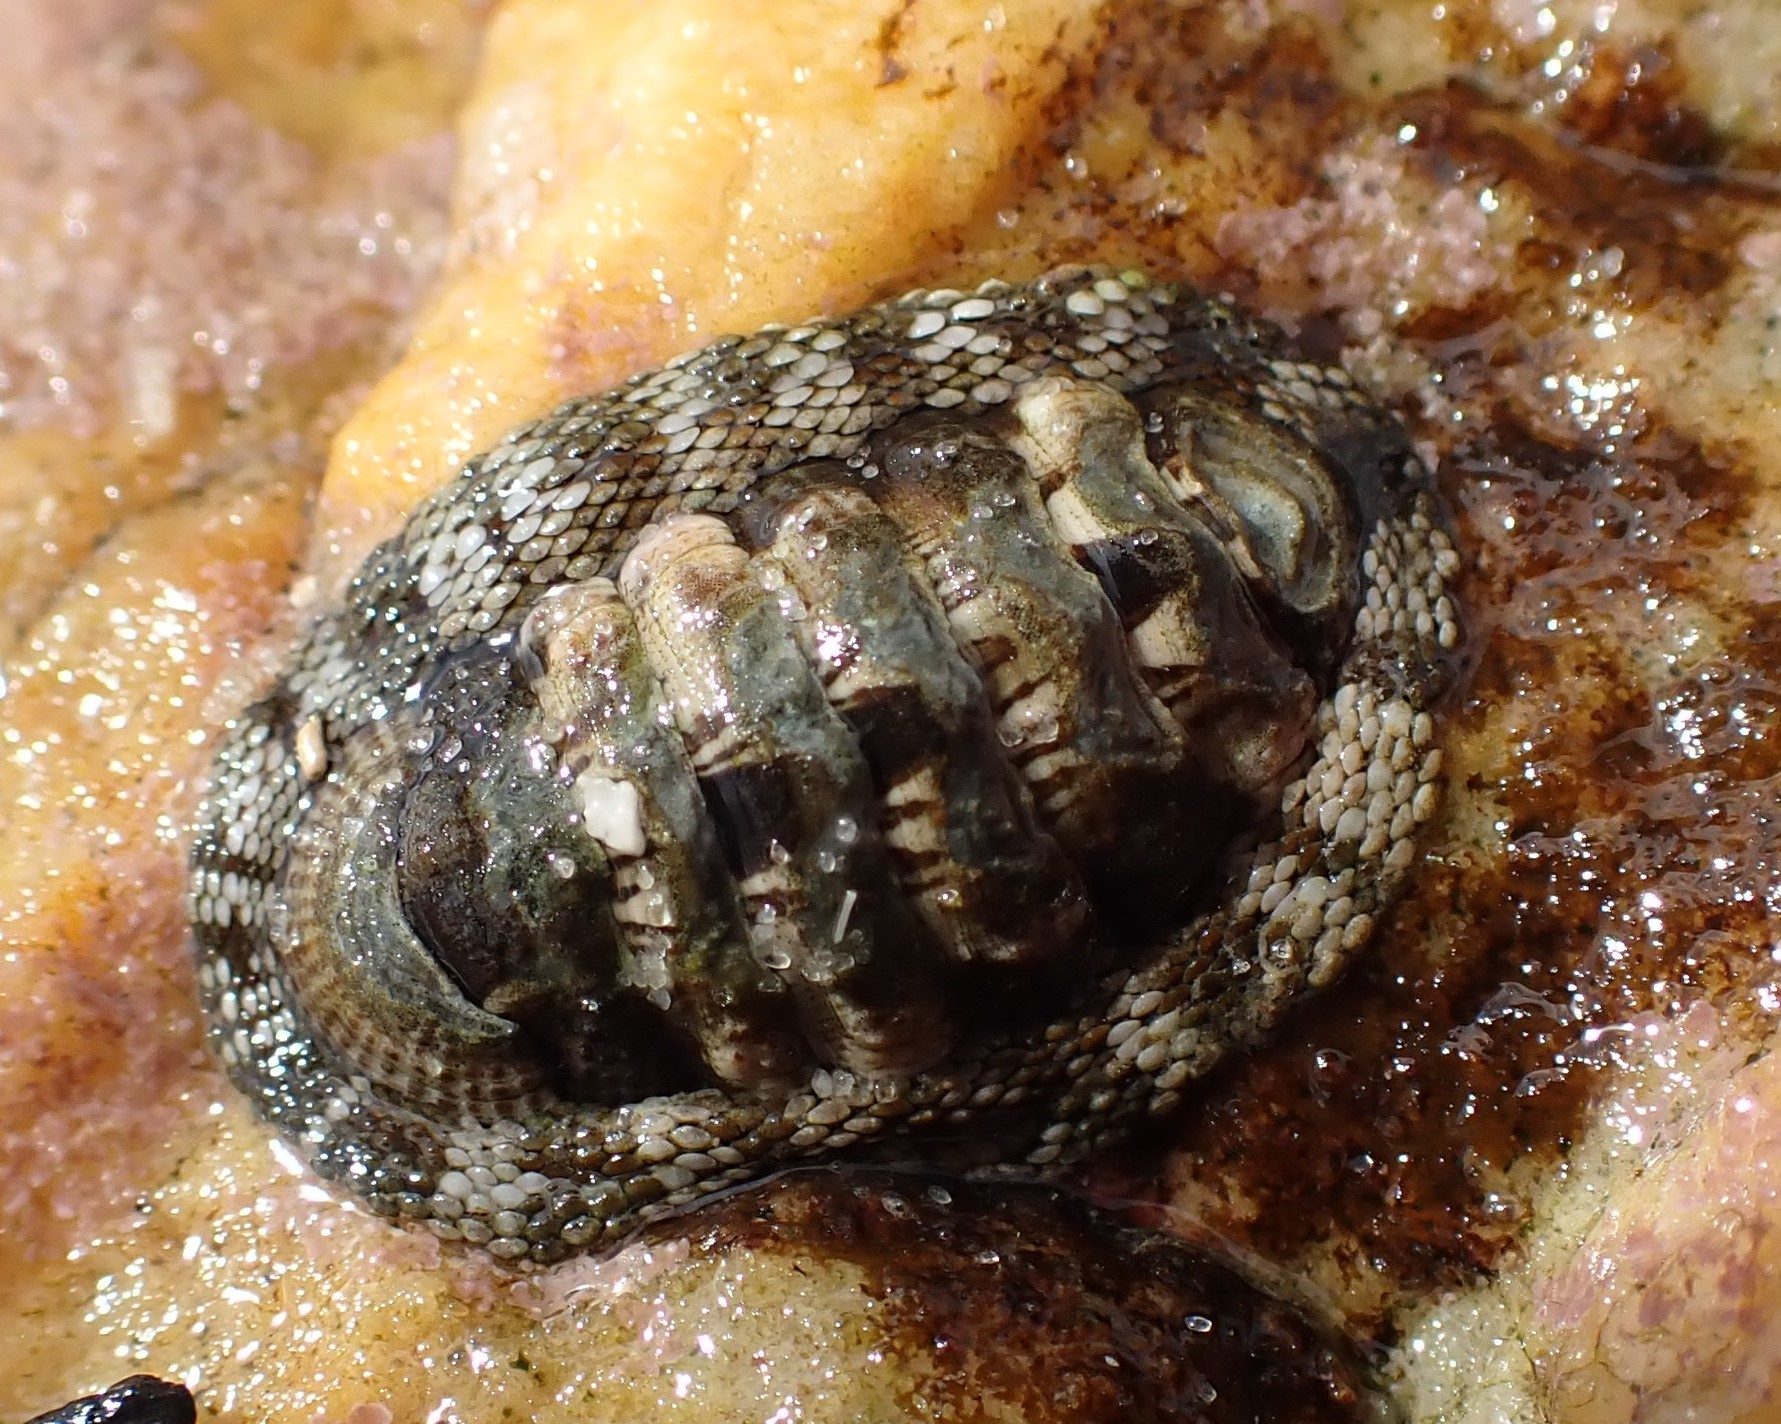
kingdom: Animalia
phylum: Mollusca
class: Polyplacophora
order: Chitonida
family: Chitonidae
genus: Sypharochiton
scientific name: Sypharochiton pelliserpentis
